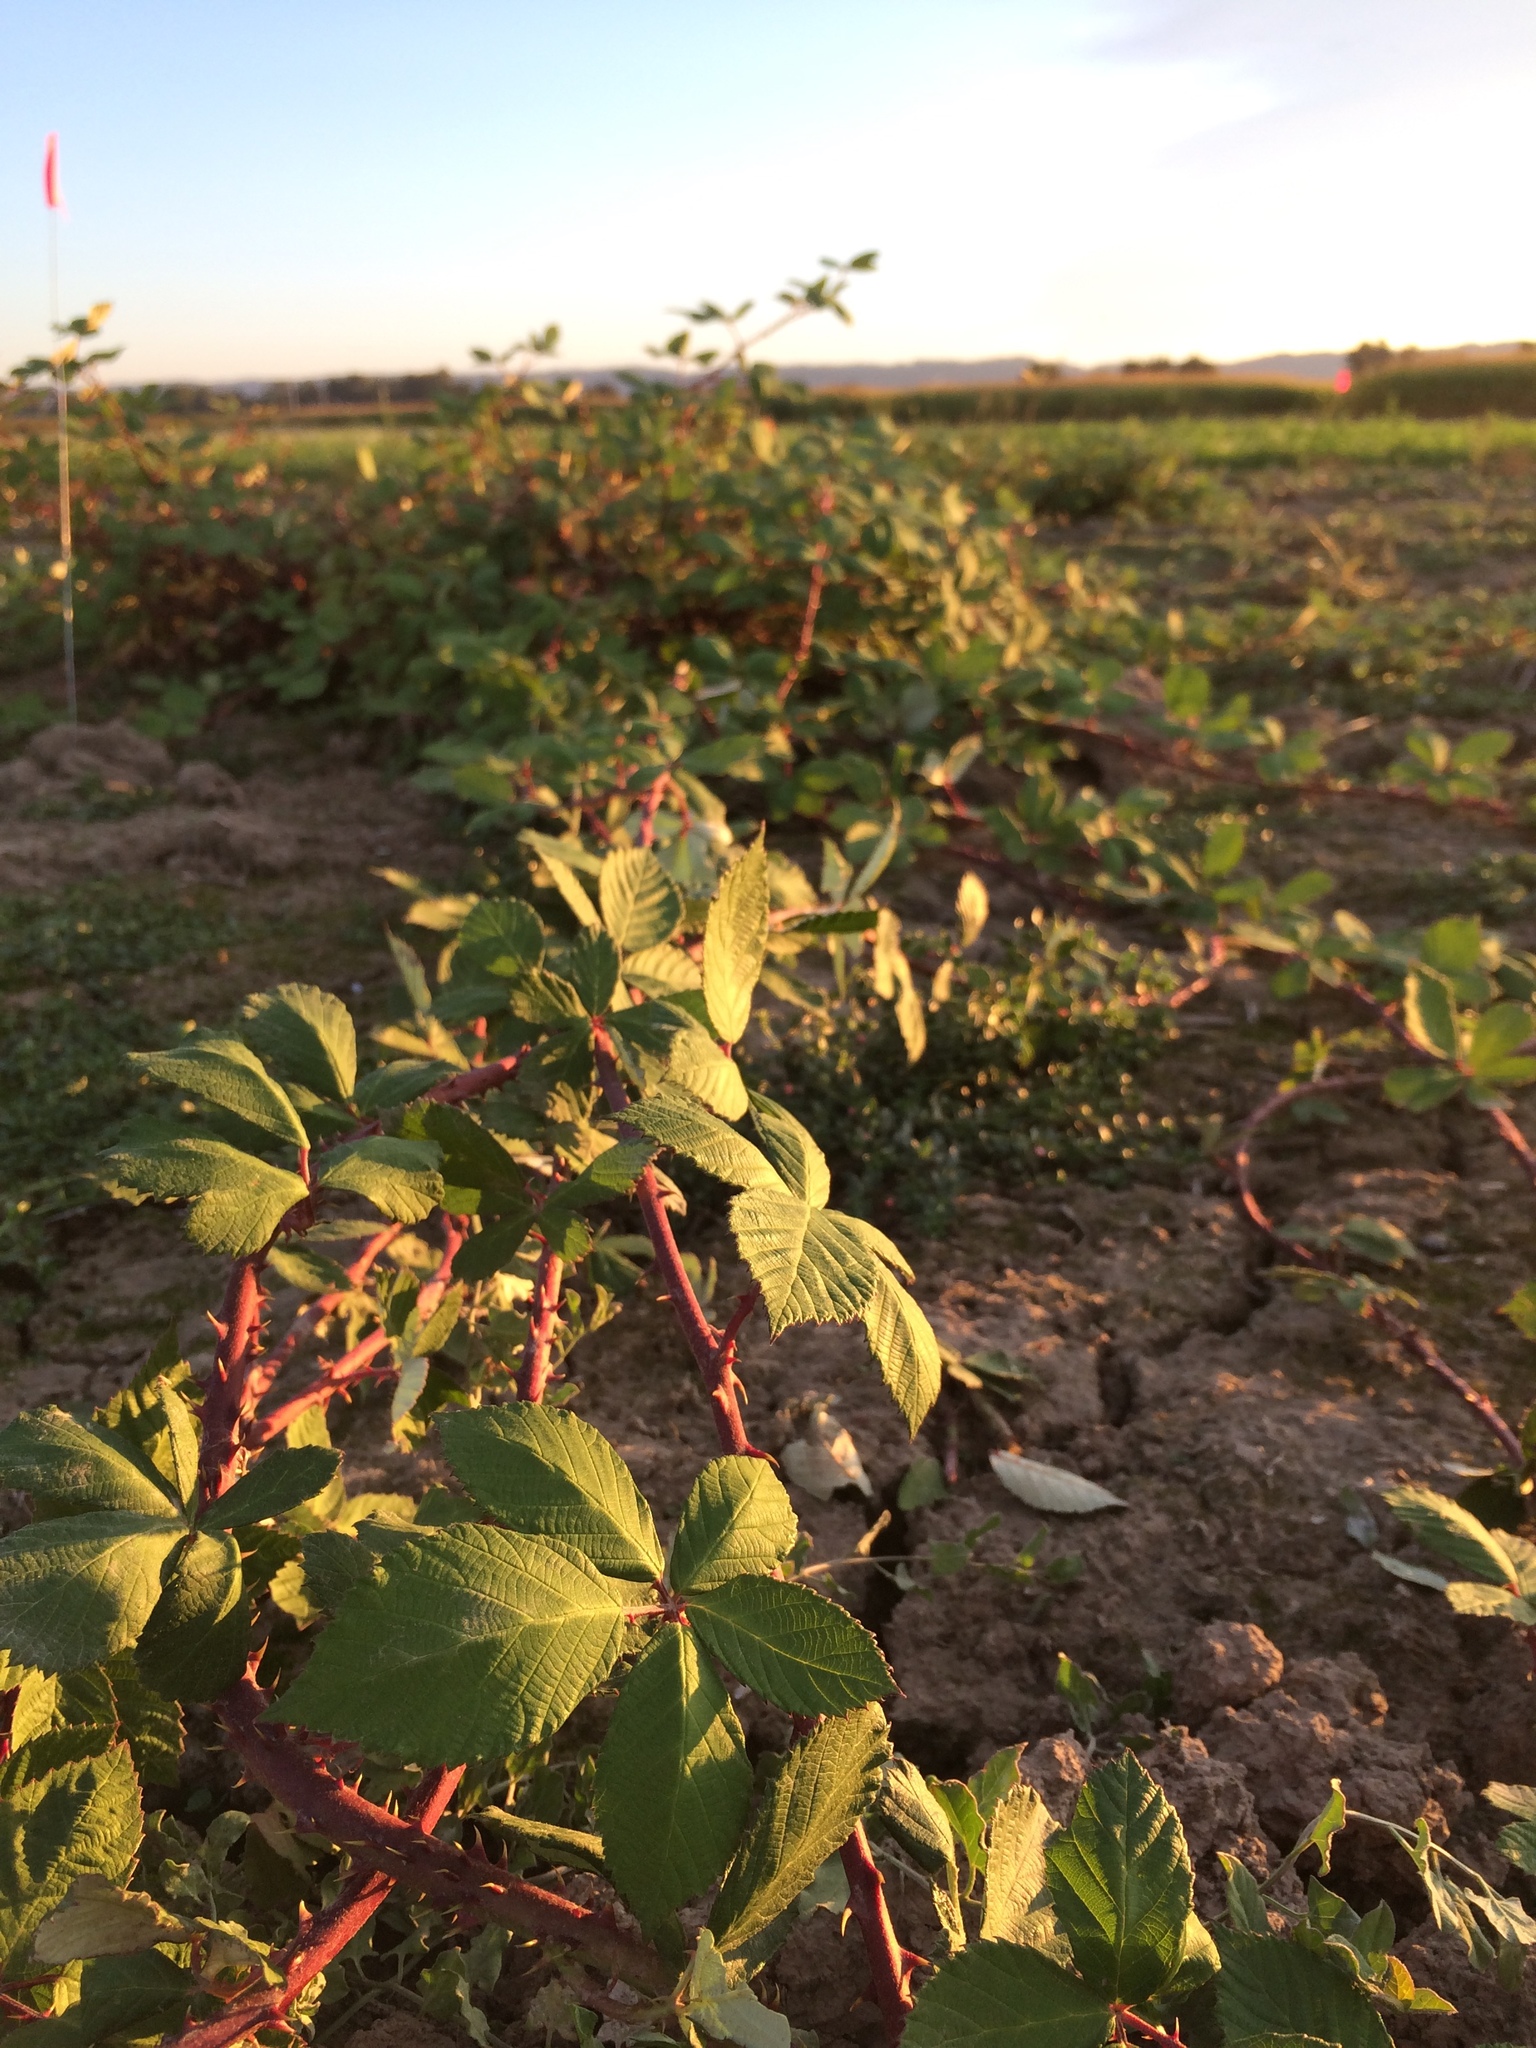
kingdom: Plantae
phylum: Tracheophyta
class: Magnoliopsida
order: Rosales
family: Rosaceae
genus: Rubus
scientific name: Rubus armeniacus
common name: Himalayan blackberry
